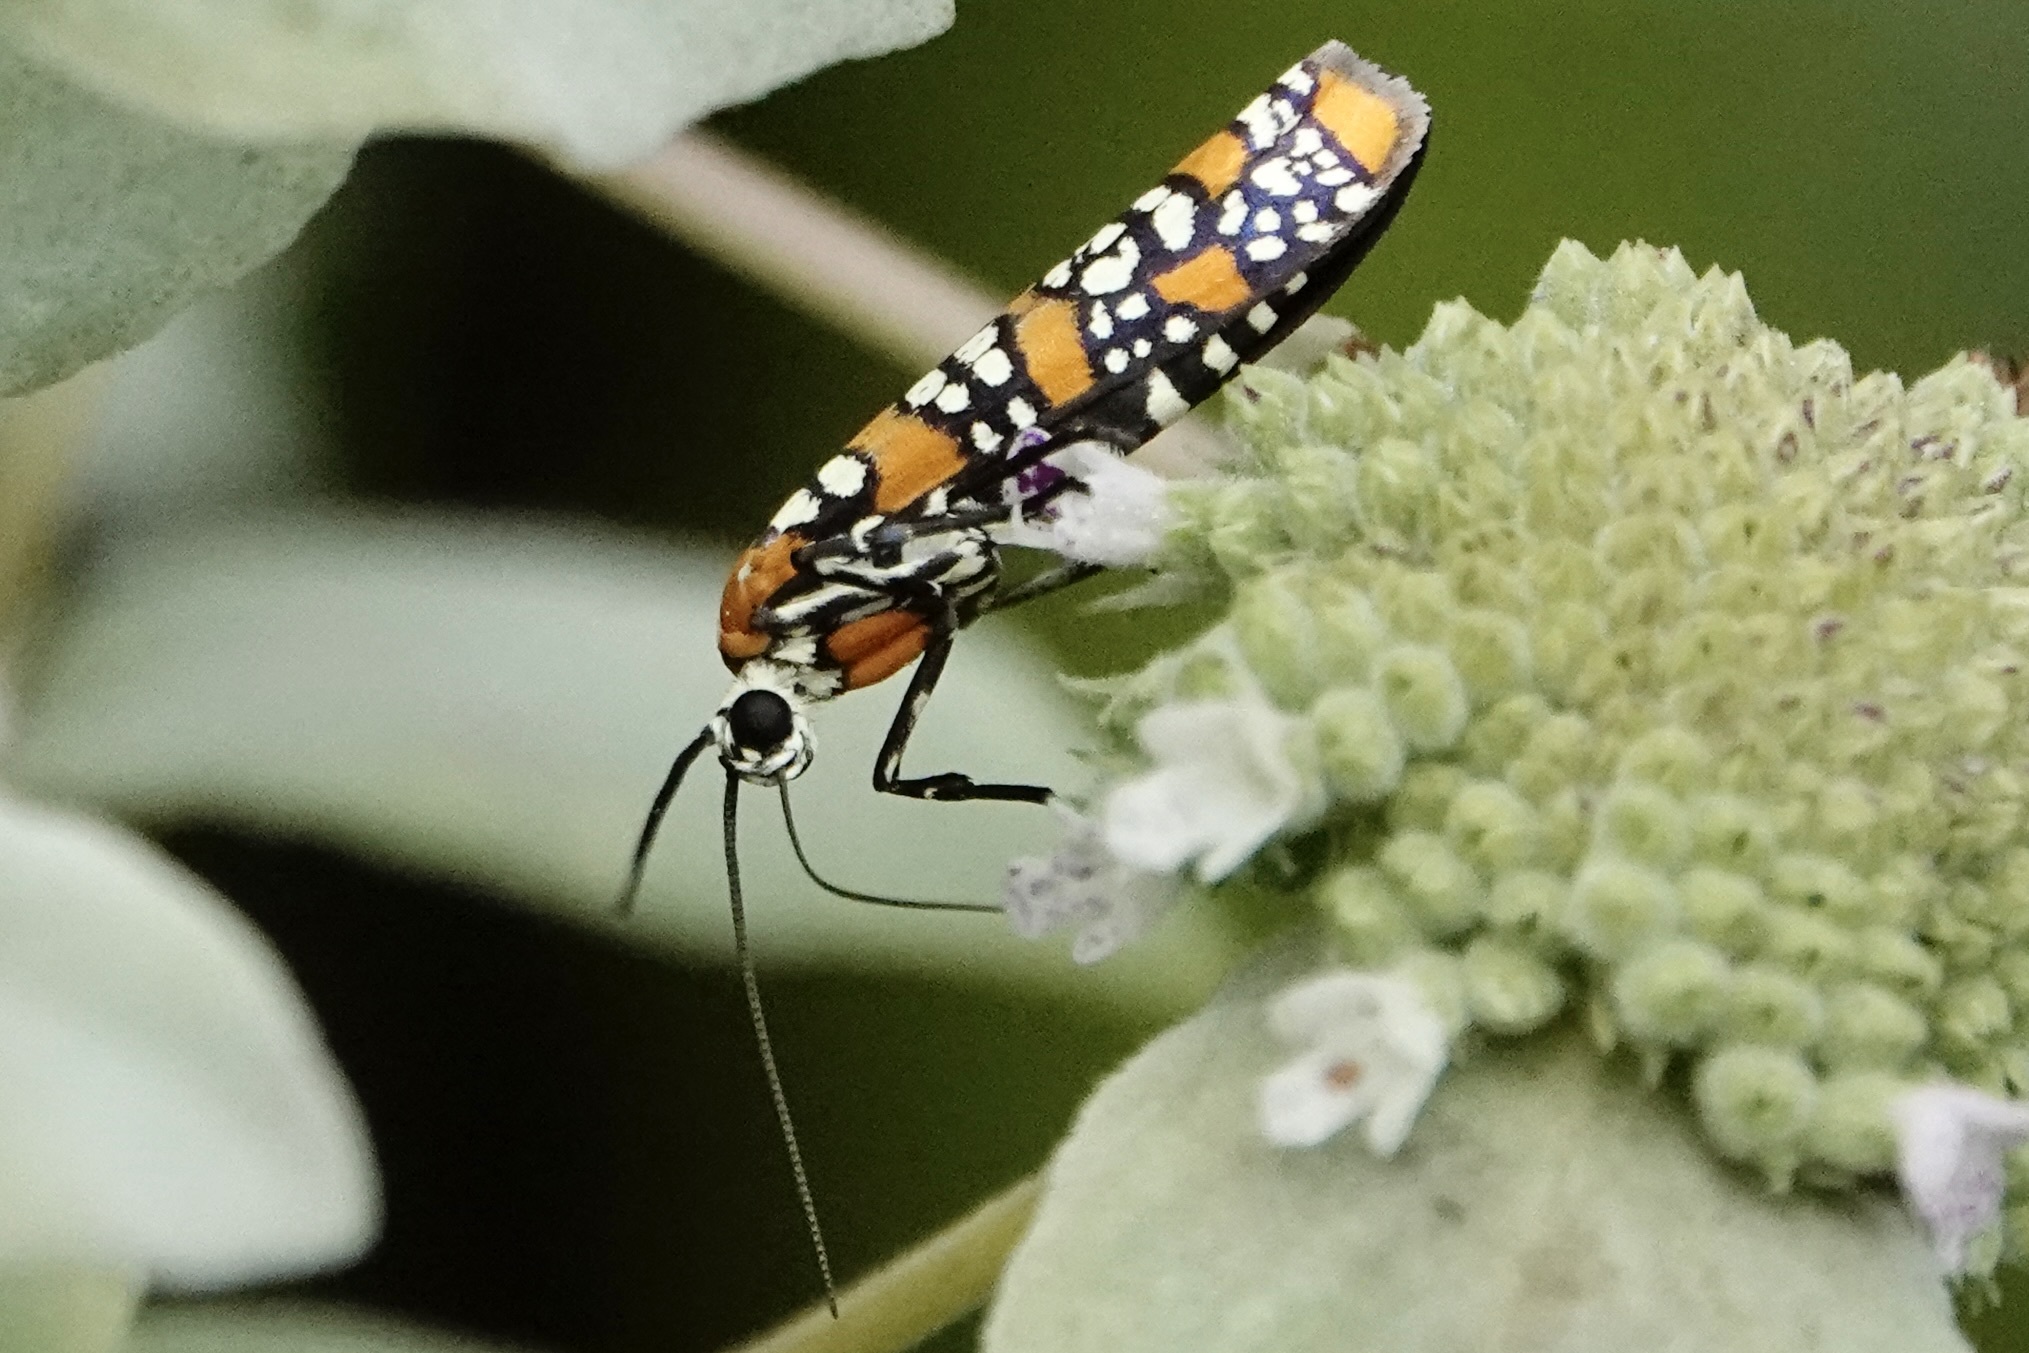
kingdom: Animalia
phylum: Arthropoda
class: Insecta
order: Lepidoptera
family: Attevidae
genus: Atteva
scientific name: Atteva punctella
